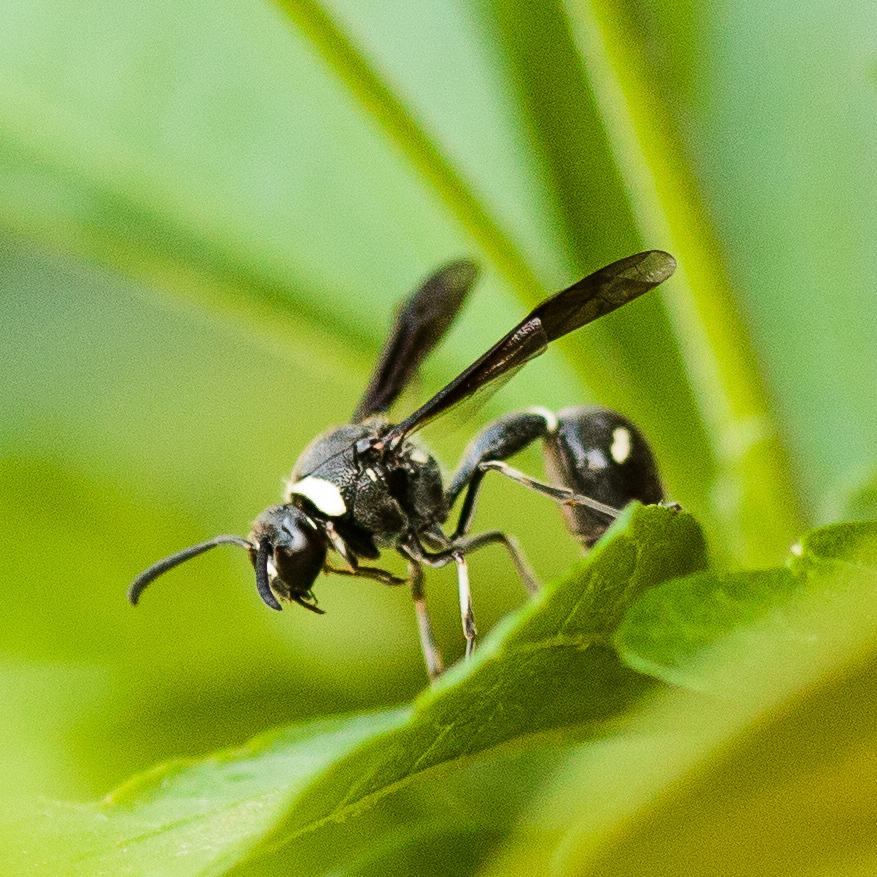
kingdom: Animalia
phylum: Arthropoda
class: Insecta
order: Hymenoptera
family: Vespidae
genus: Eumenes
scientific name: Eumenes fraternus
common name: Fraternal potter wasp
